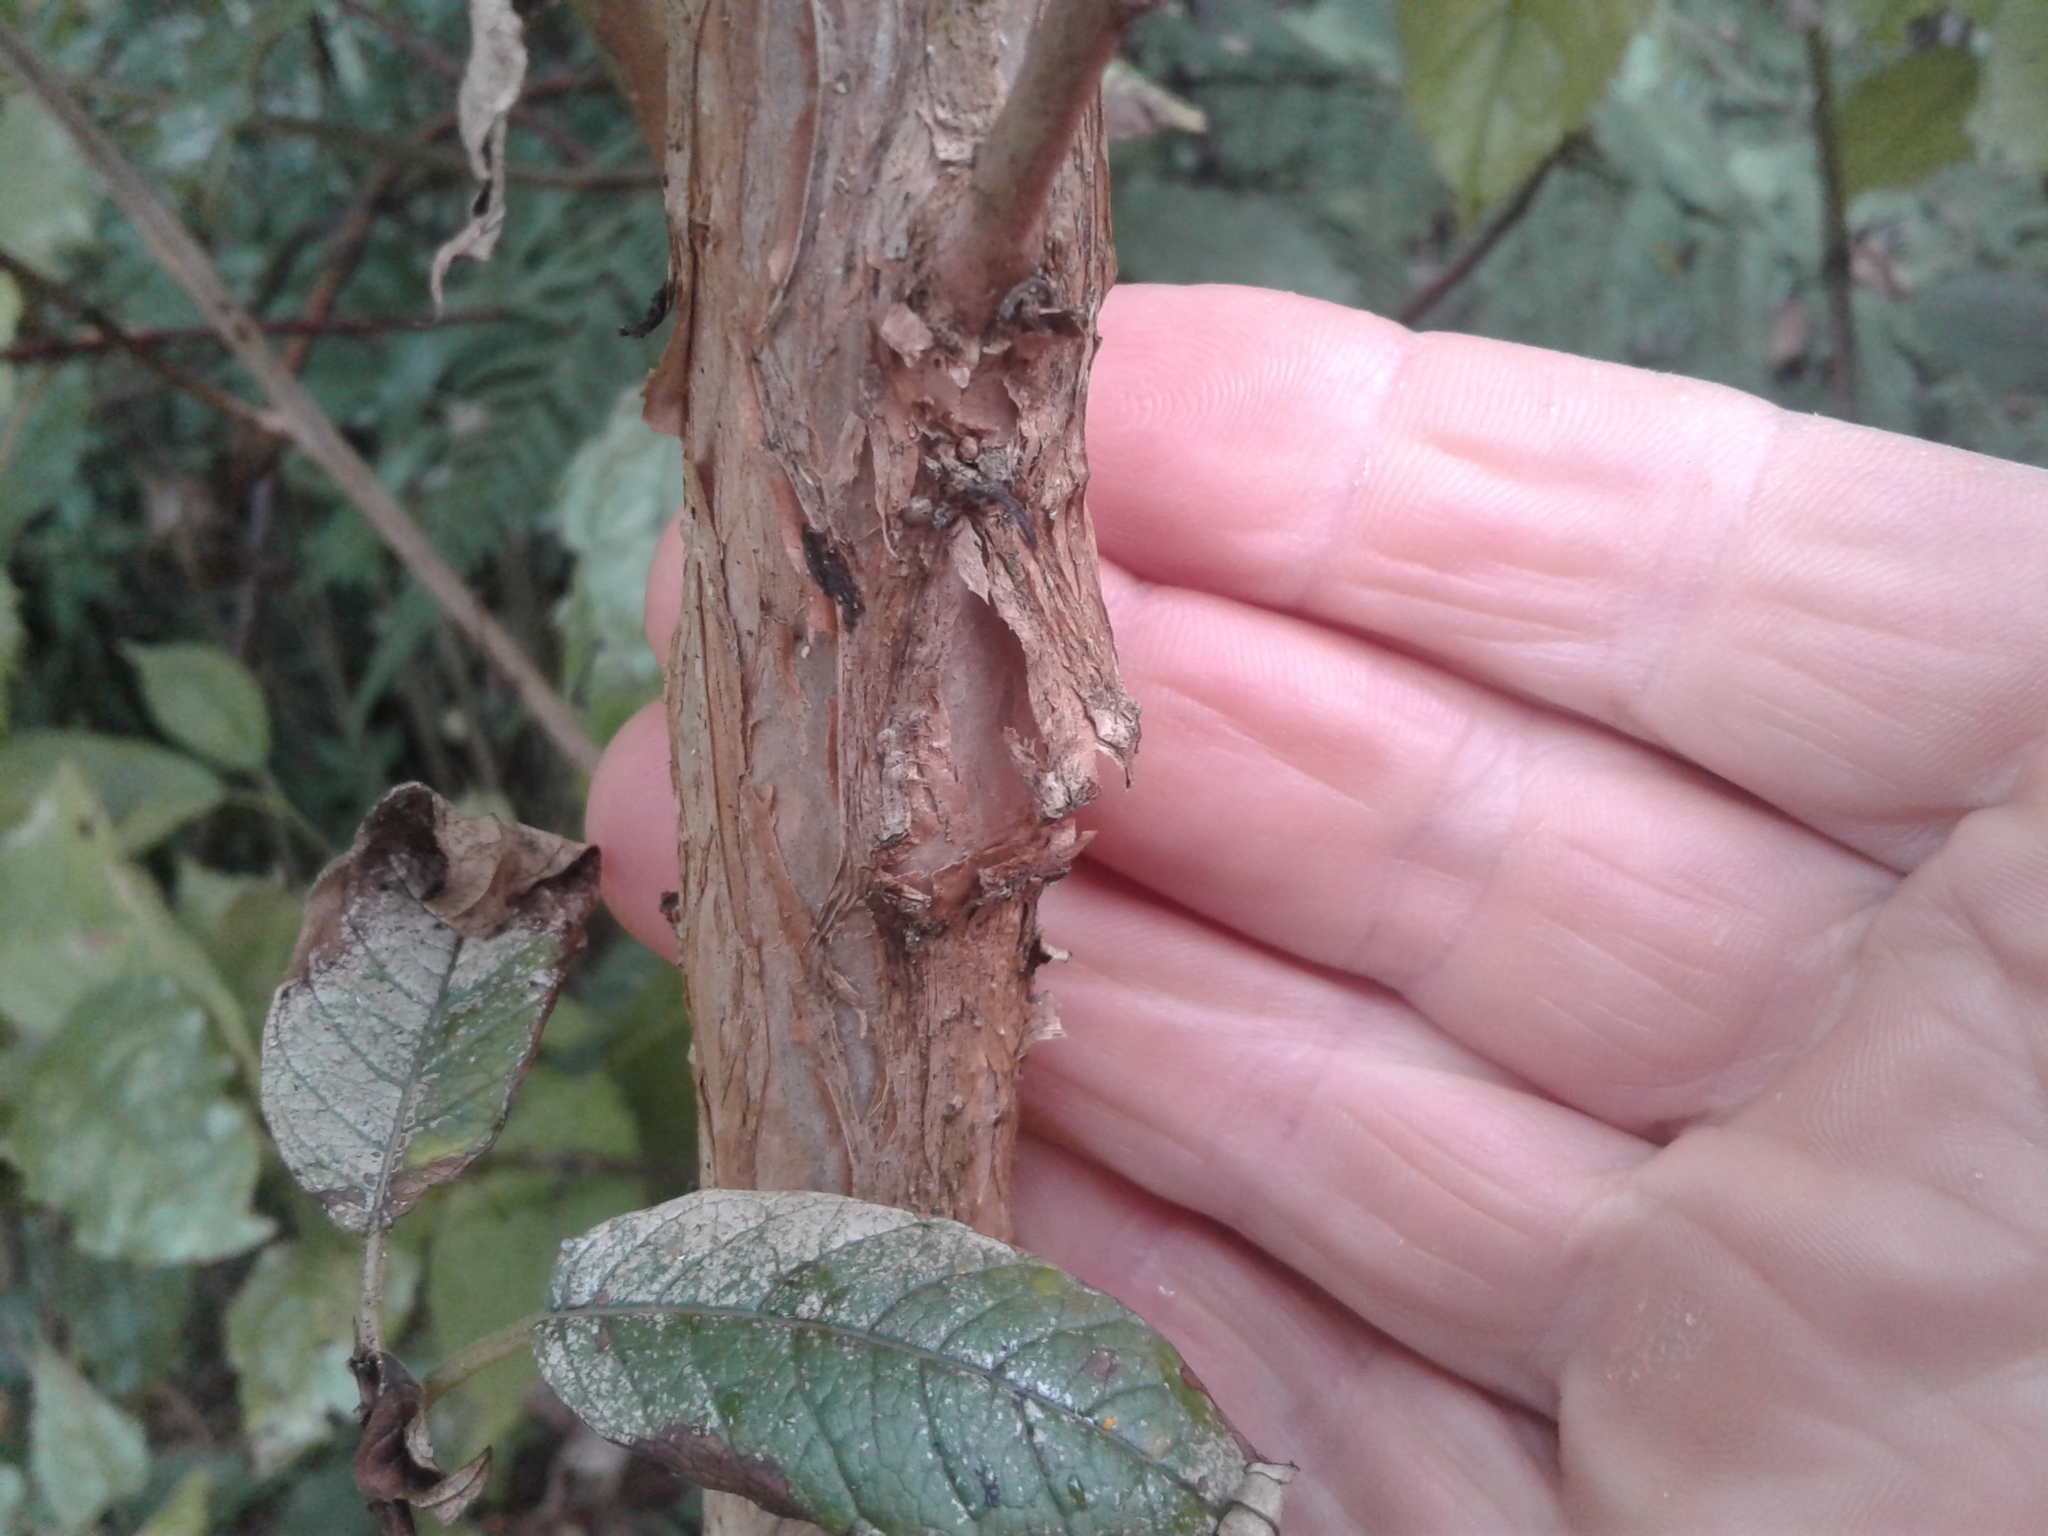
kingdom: Plantae
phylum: Tracheophyta
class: Magnoliopsida
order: Myrtales
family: Onagraceae
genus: Fuchsia
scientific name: Fuchsia excorticata
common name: Tree fuchsia
